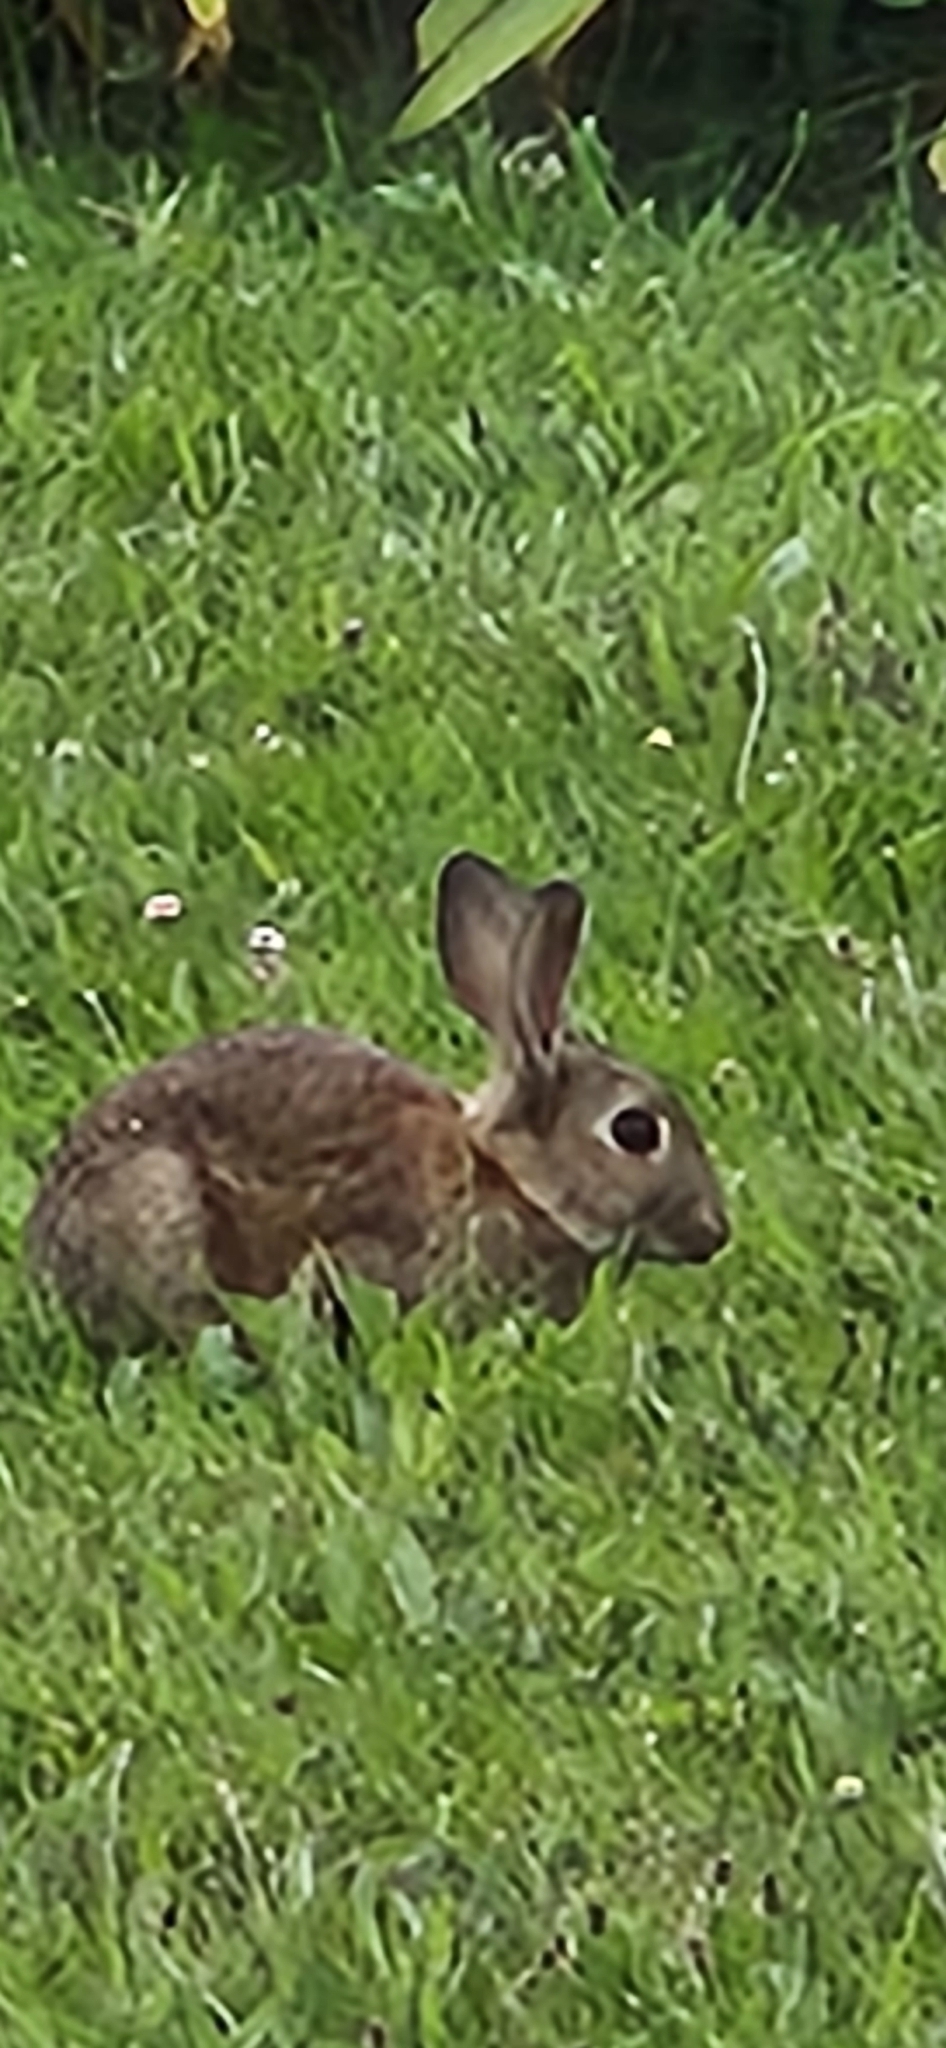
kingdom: Animalia
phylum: Chordata
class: Mammalia
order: Lagomorpha
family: Leporidae
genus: Oryctolagus
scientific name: Oryctolagus cuniculus
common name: European rabbit
